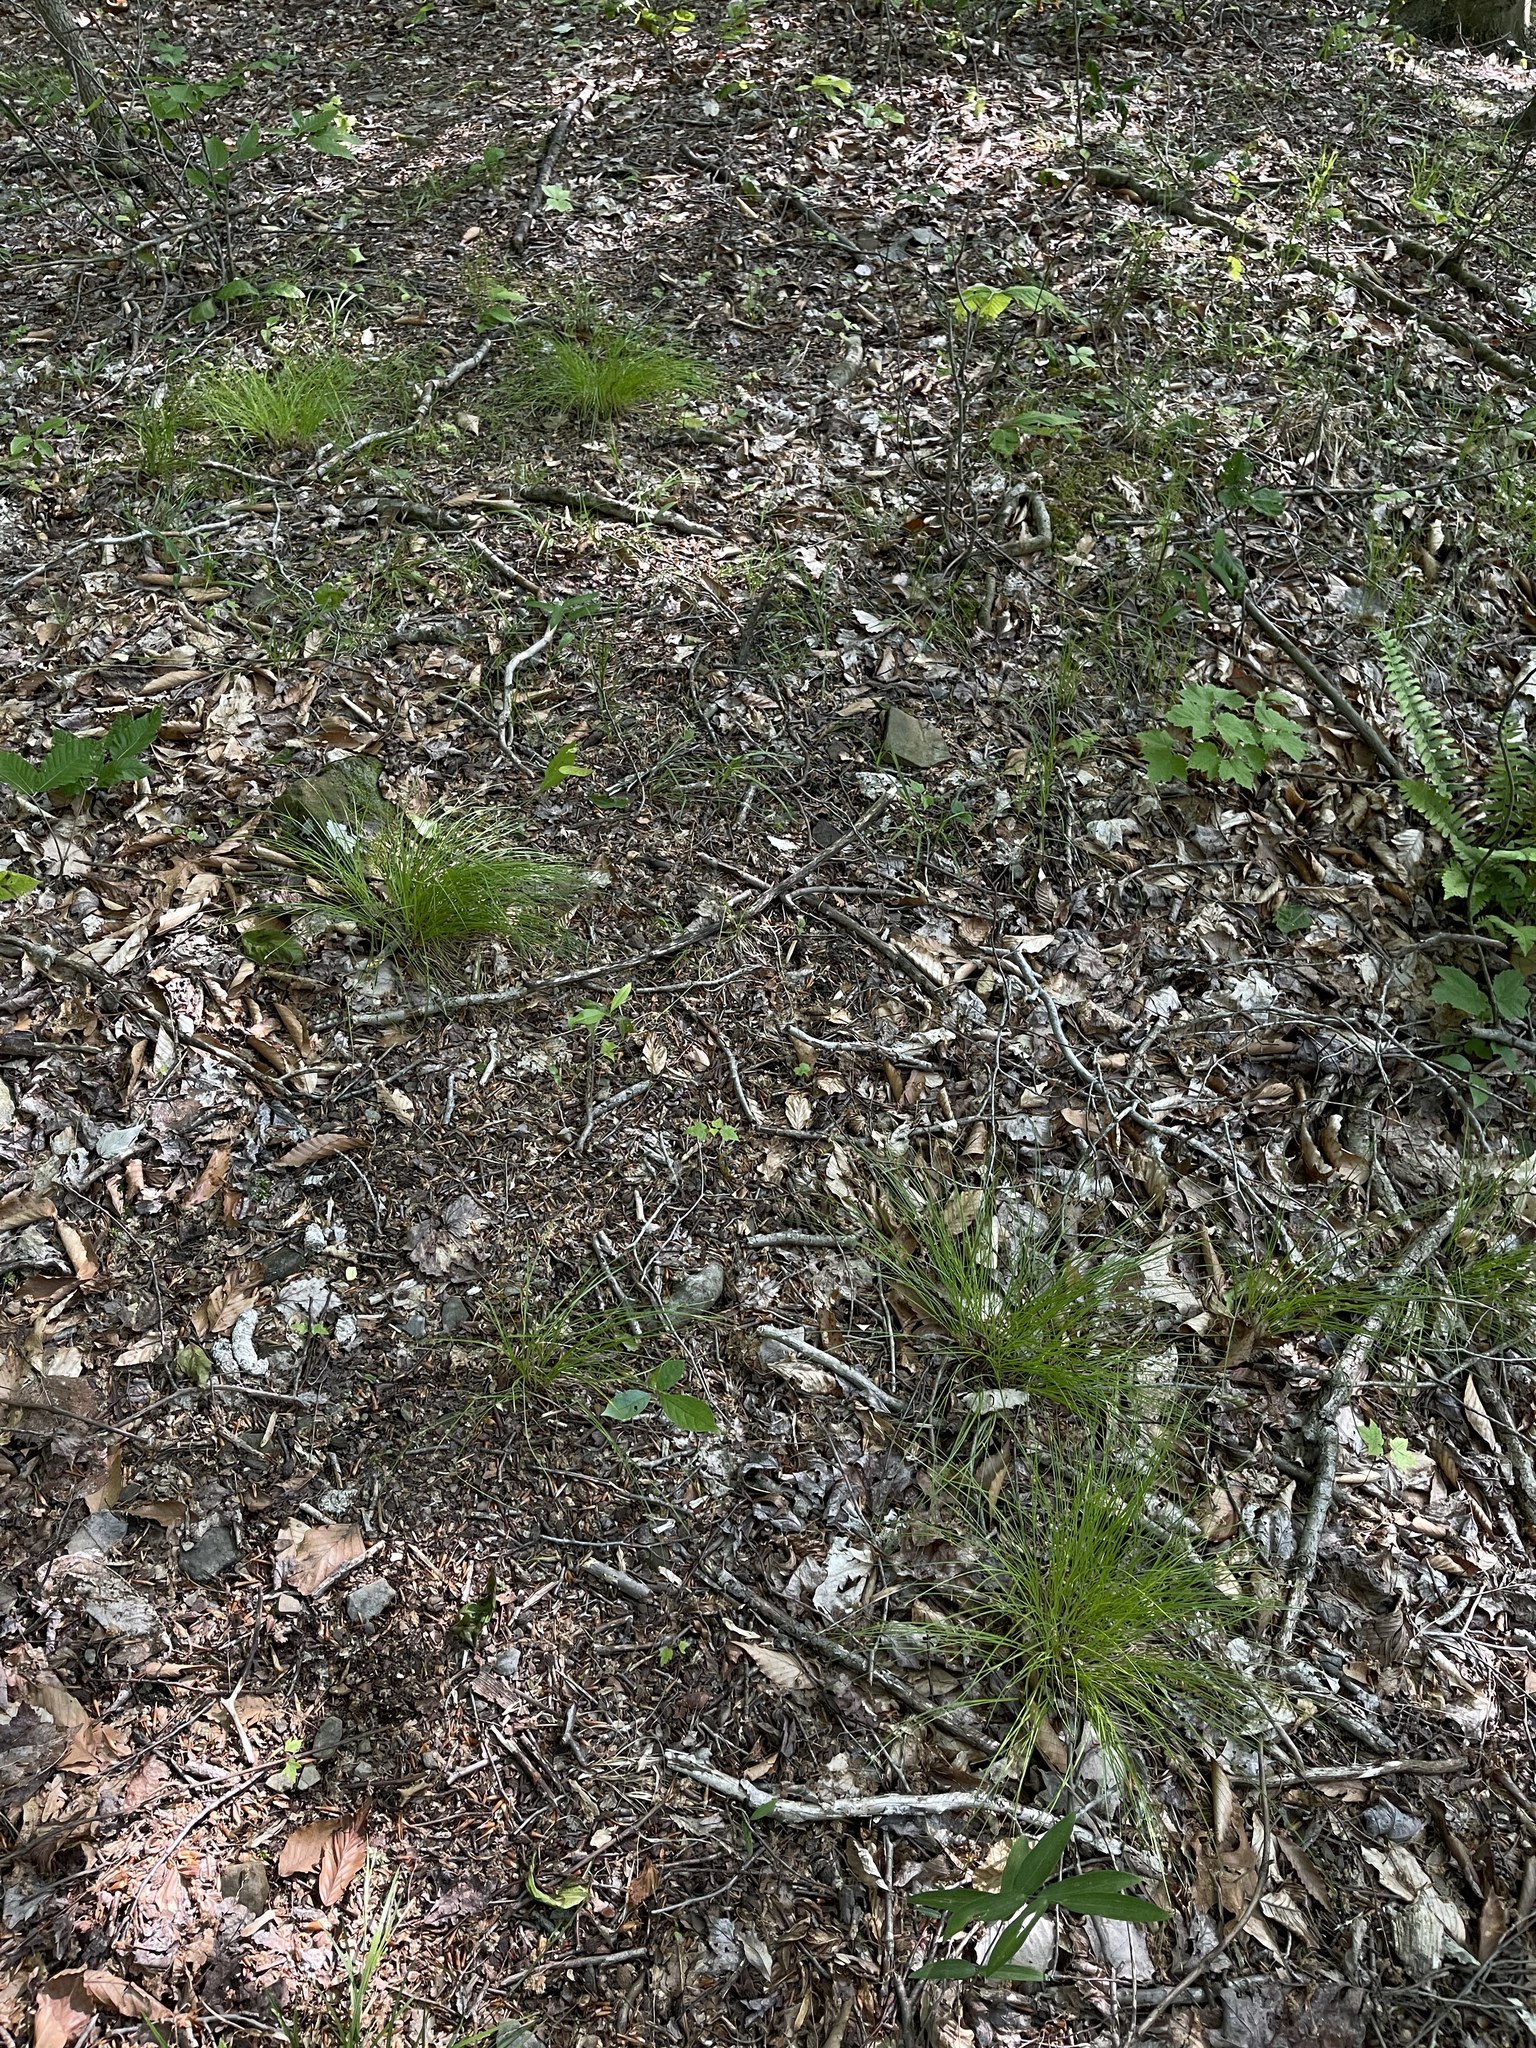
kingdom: Plantae
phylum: Tracheophyta
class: Liliopsida
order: Poales
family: Cyperaceae
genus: Trichophorum
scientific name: Trichophorum planifolium
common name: Bashful bulrush
